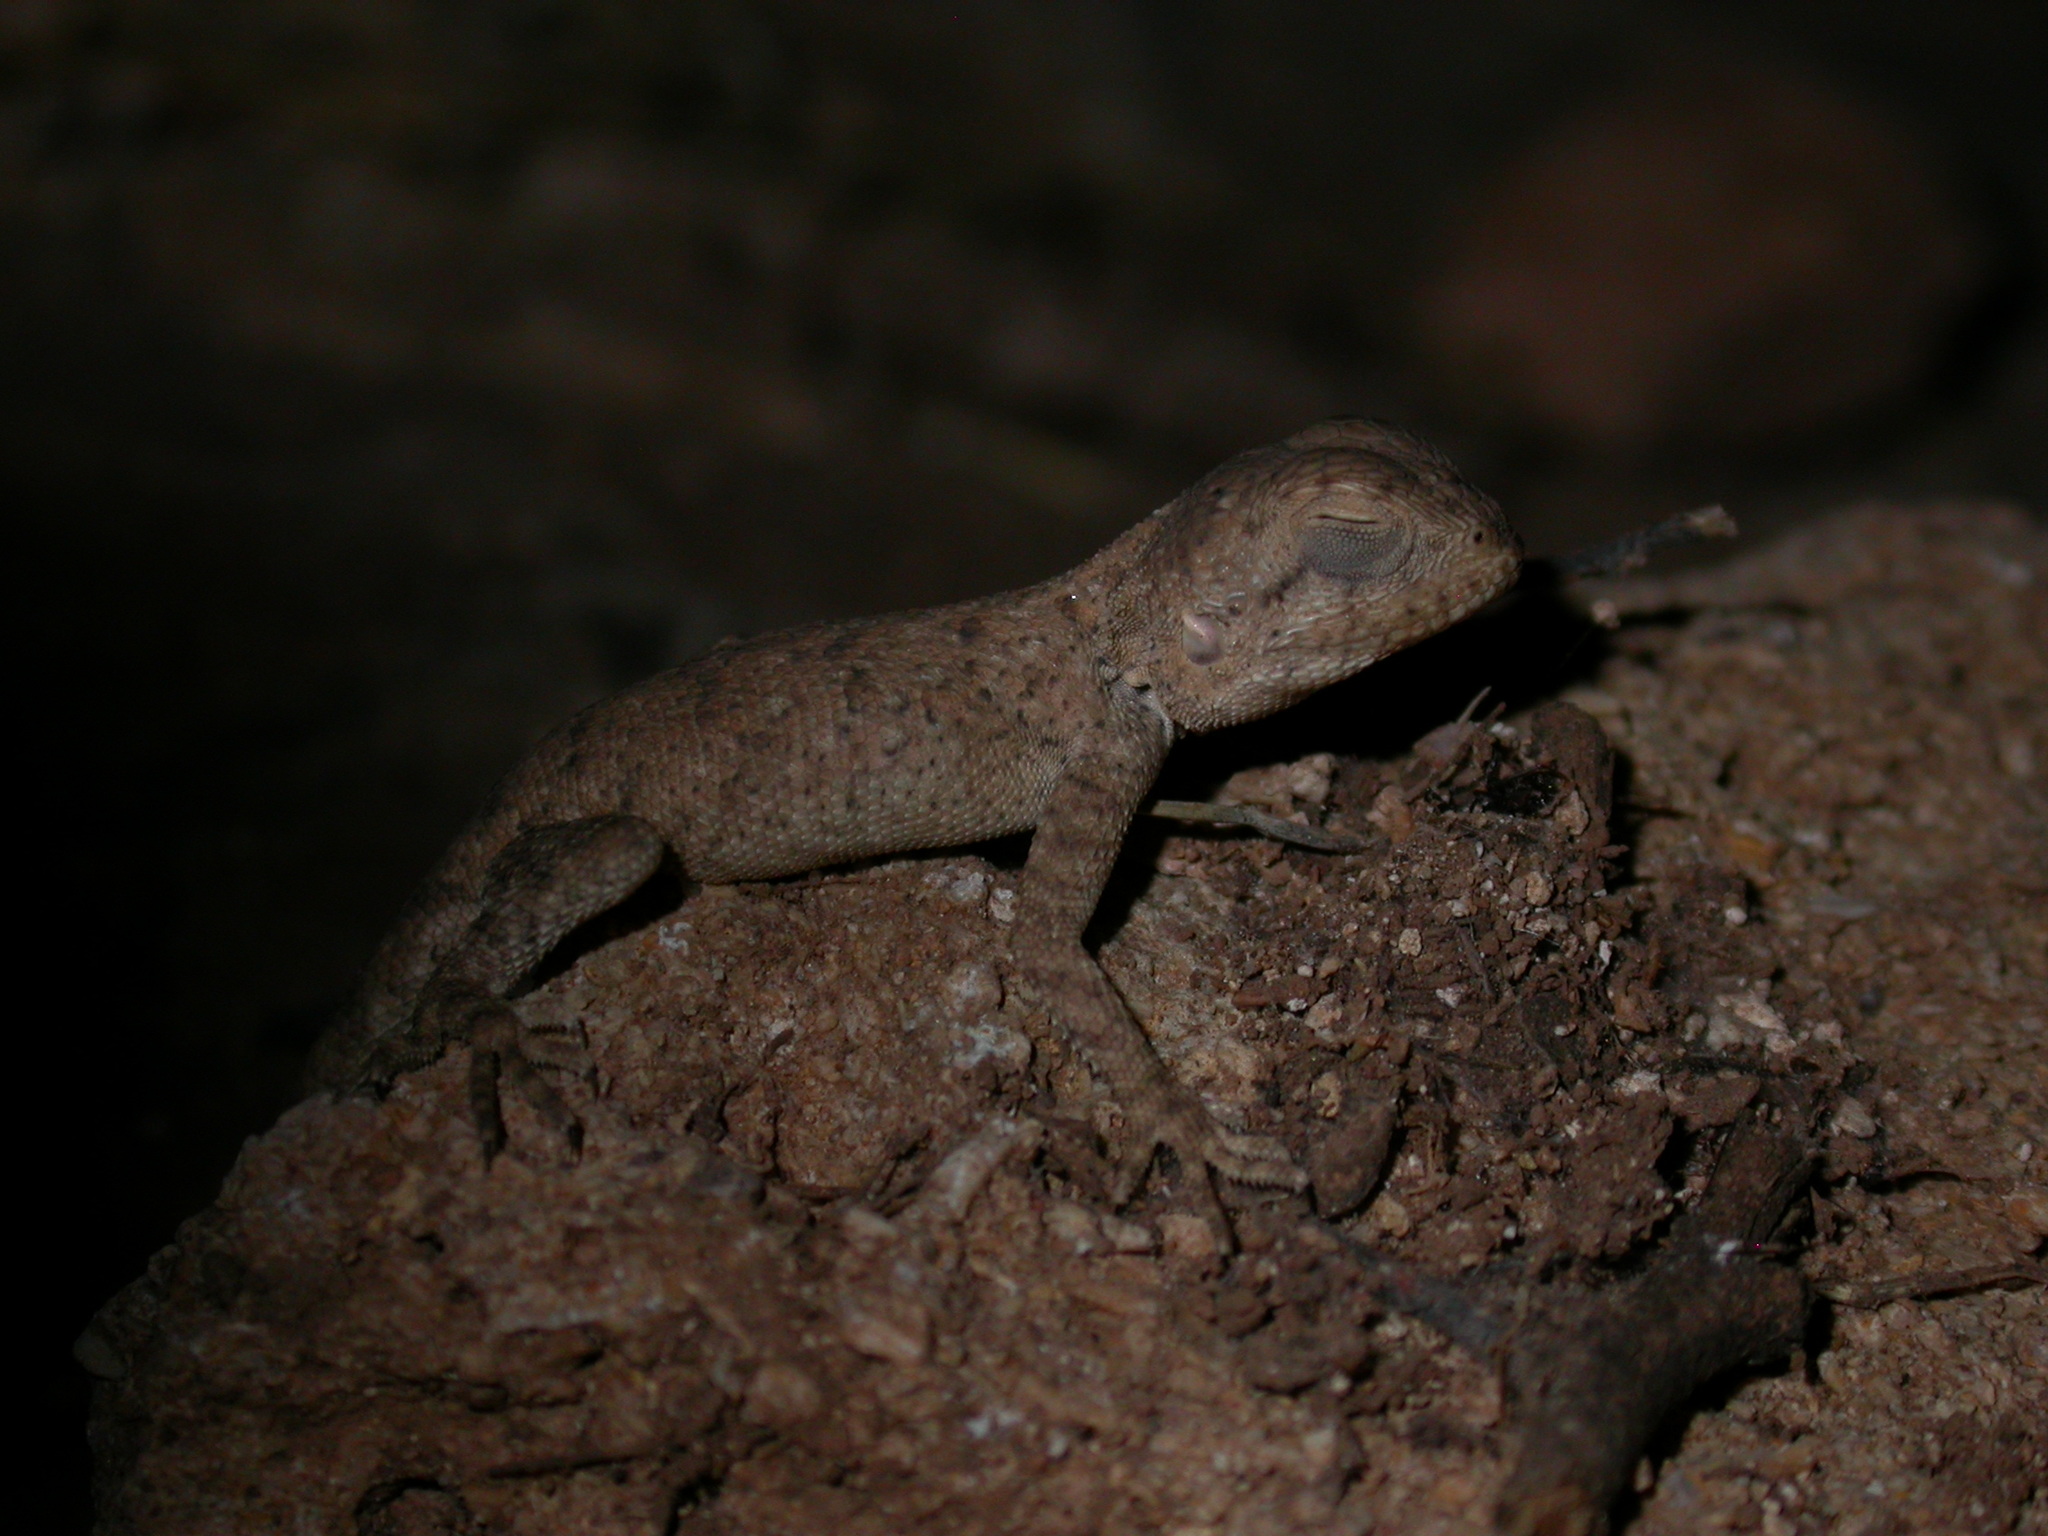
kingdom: Animalia
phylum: Chordata
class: Squamata
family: Agamidae
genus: Agama
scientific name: Agama impalearis
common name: Bibron's agama
